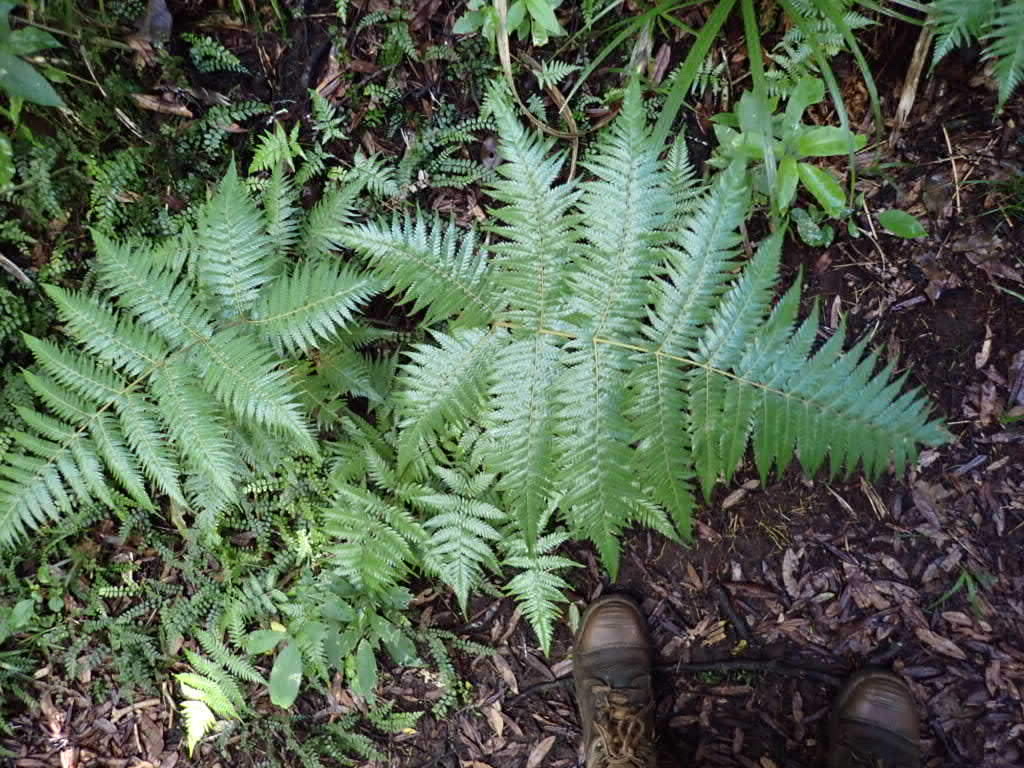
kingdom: Plantae
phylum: Tracheophyta
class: Polypodiopsida
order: Cyatheales
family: Cyatheaceae
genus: Alsophila
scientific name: Alsophila dealbata
